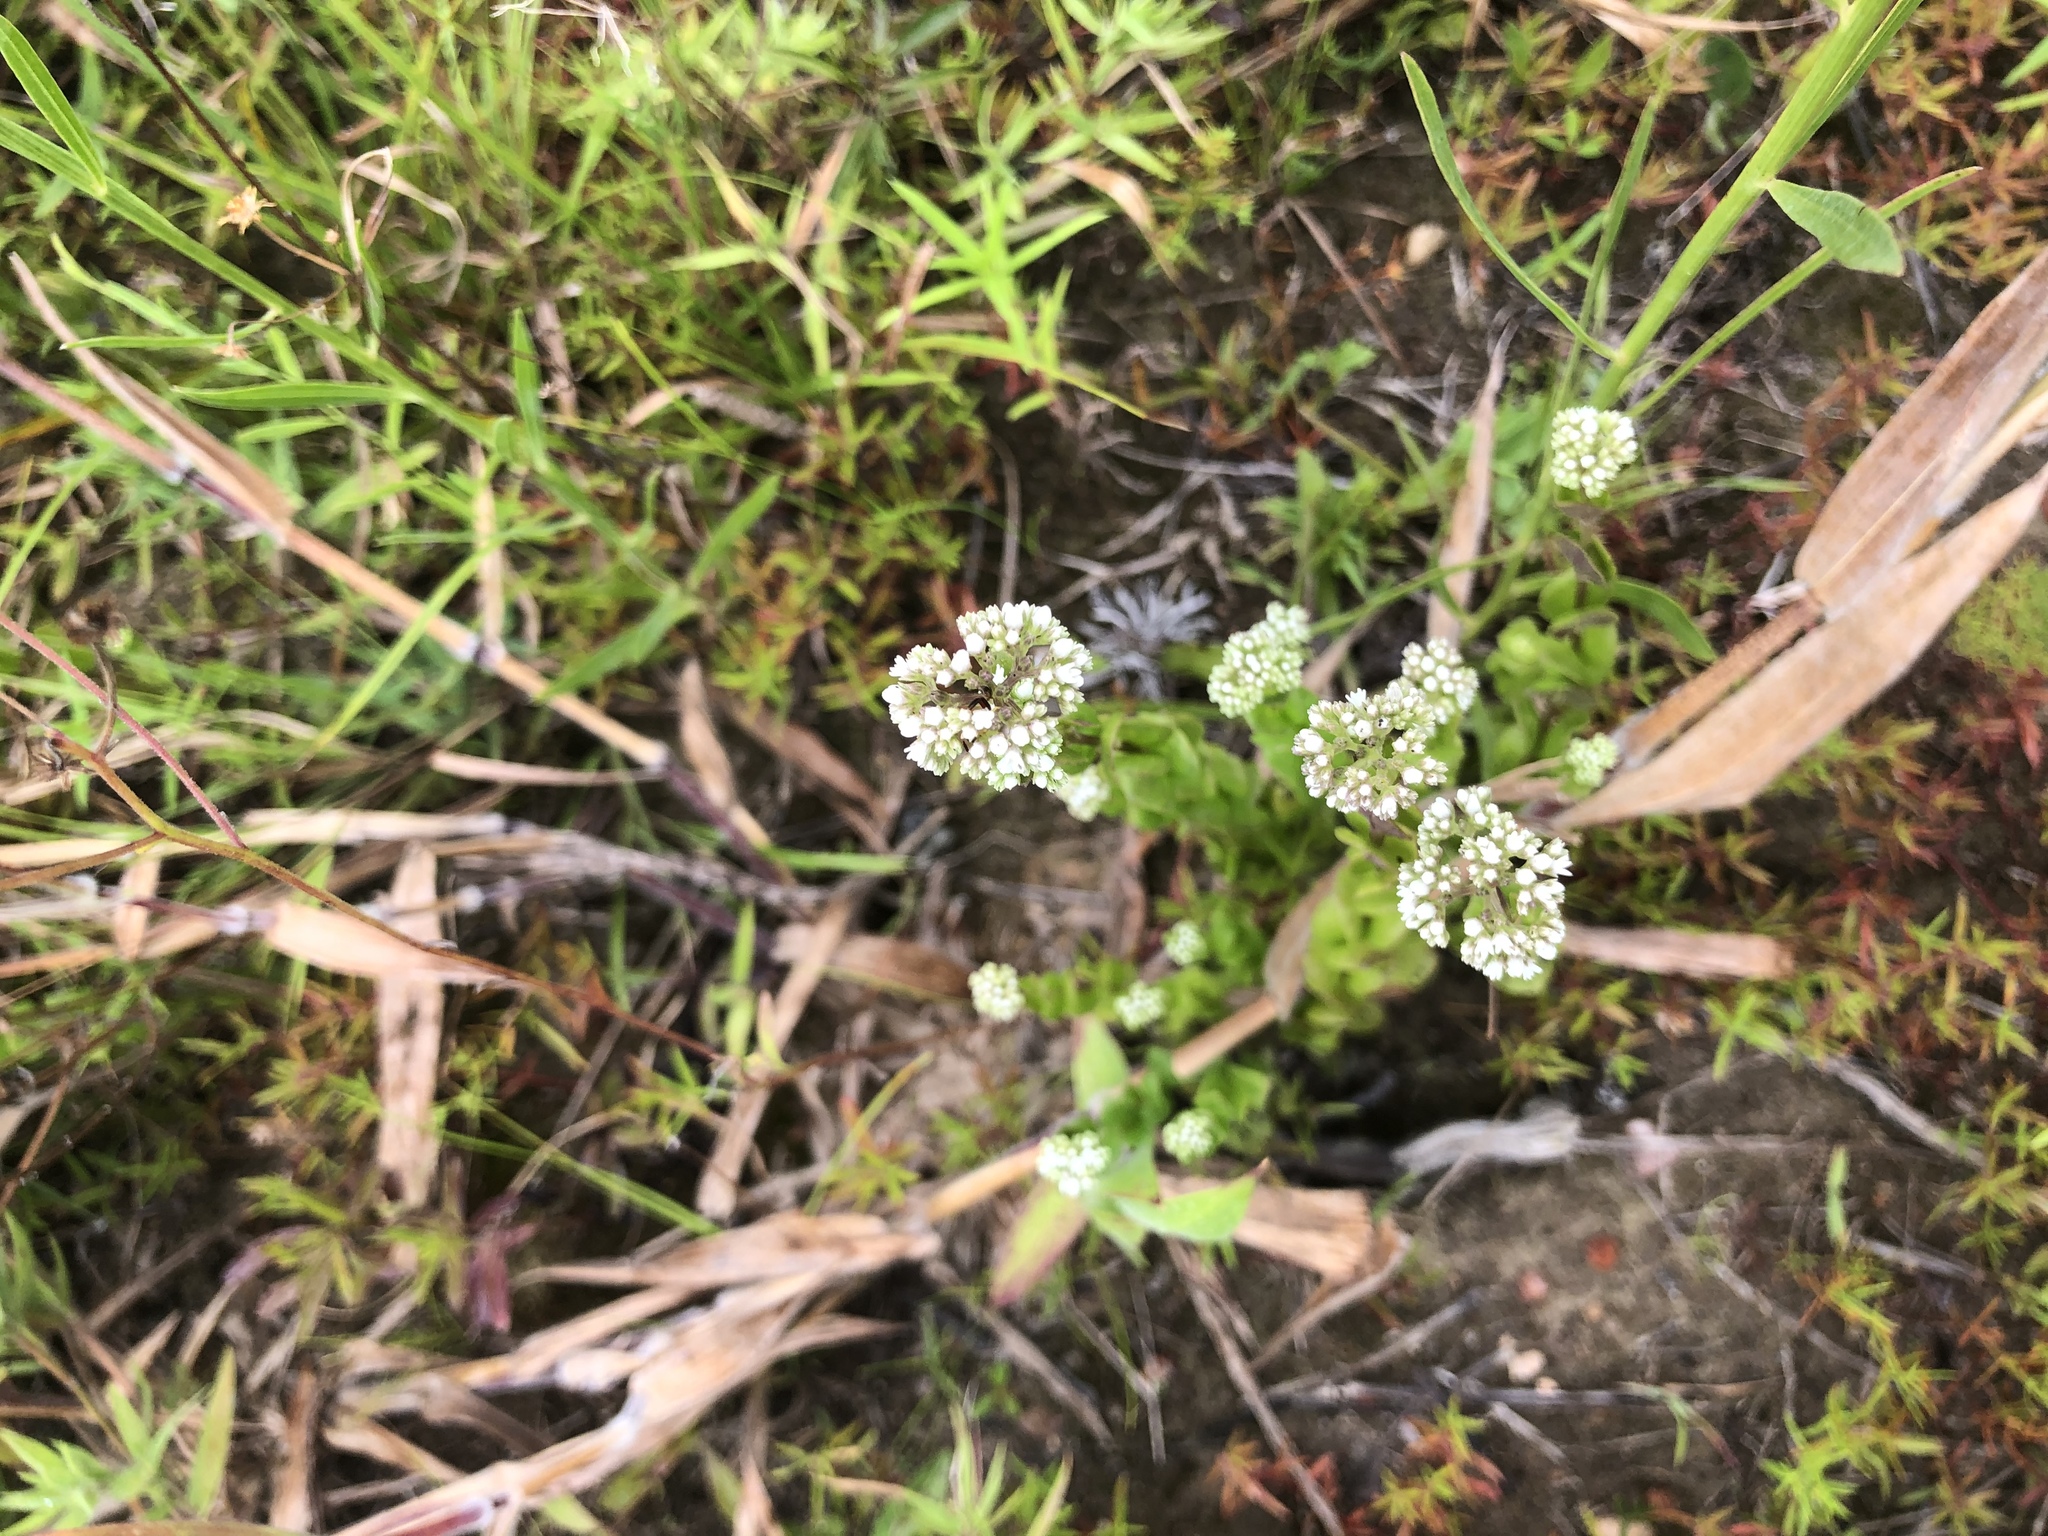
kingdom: Plantae
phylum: Tracheophyta
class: Magnoliopsida
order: Gentianales
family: Loganiaceae
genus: Mitreola
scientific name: Mitreola sessilifolia
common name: Swamp hornpod
